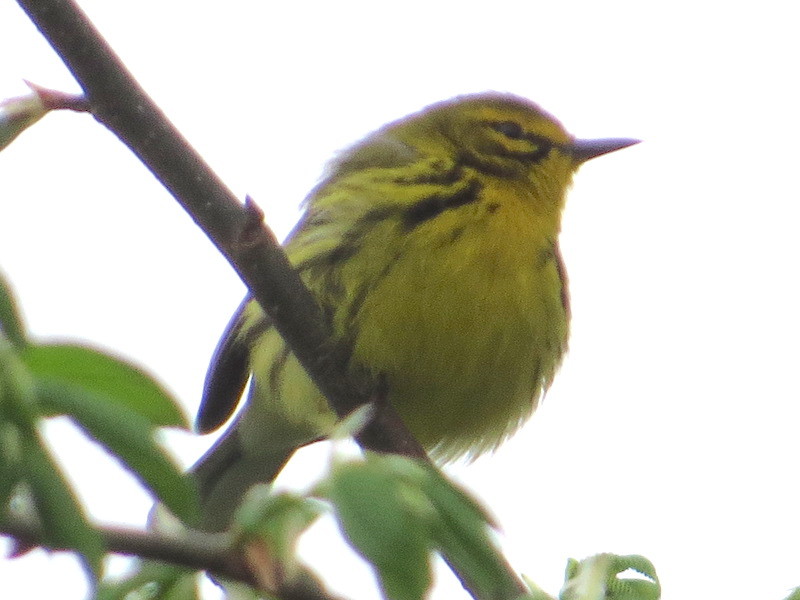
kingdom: Animalia
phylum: Chordata
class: Aves
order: Passeriformes
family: Parulidae
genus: Setophaga
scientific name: Setophaga discolor
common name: Prairie warbler
